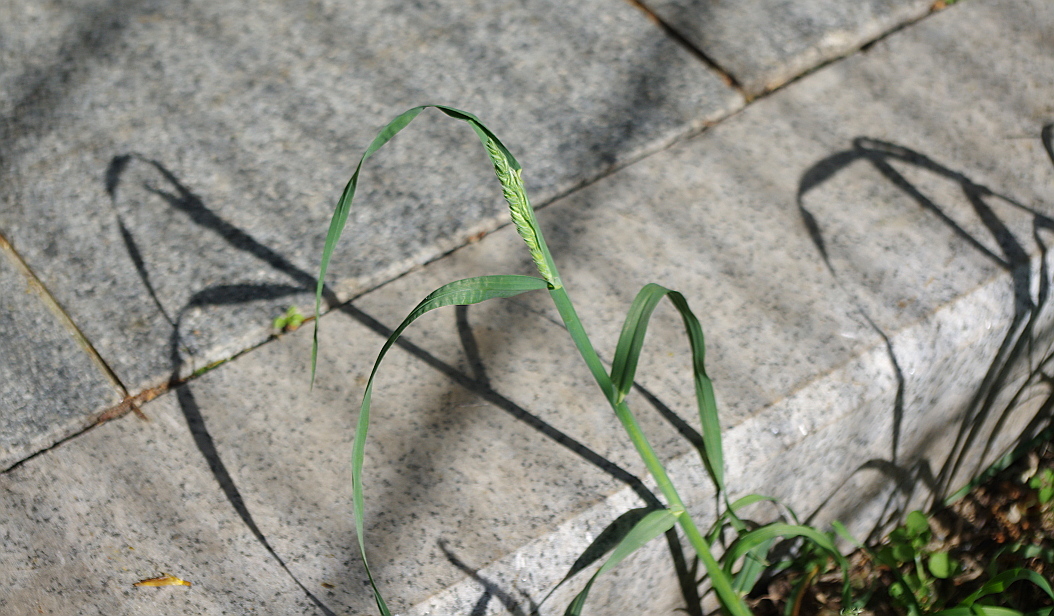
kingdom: Plantae
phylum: Tracheophyta
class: Liliopsida
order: Poales
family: Poaceae
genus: Dactylis
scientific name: Dactylis glomerata
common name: Orchardgrass
